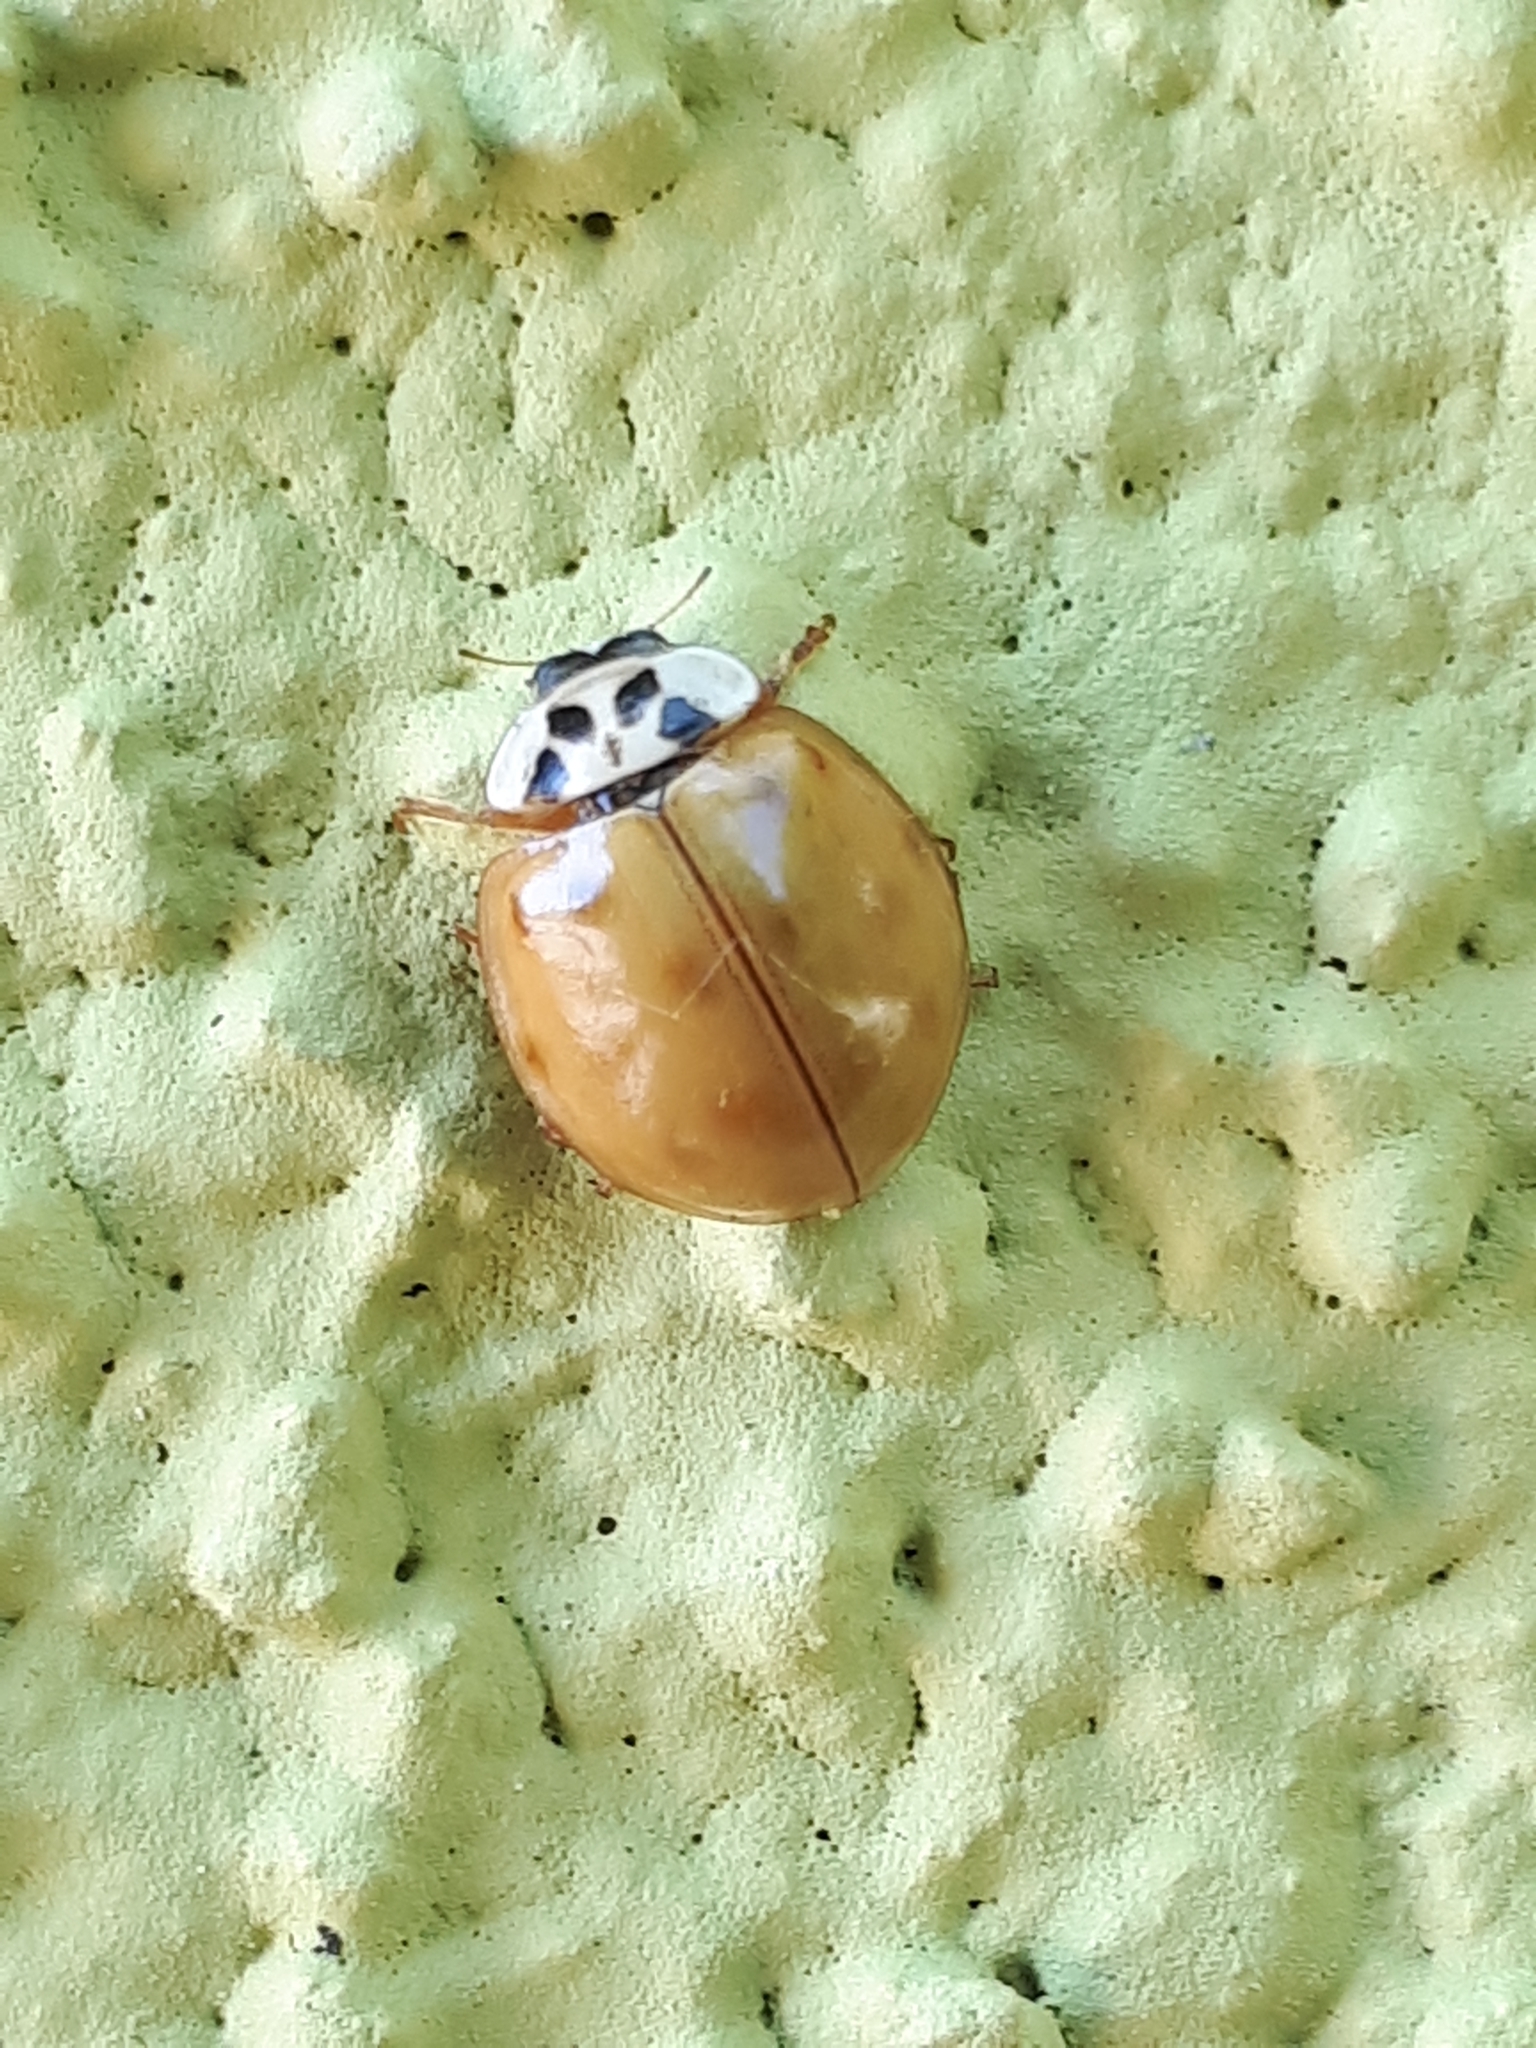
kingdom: Animalia
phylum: Arthropoda
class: Insecta
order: Coleoptera
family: Coccinellidae
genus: Harmonia
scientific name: Harmonia axyridis
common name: Harlequin ladybird
